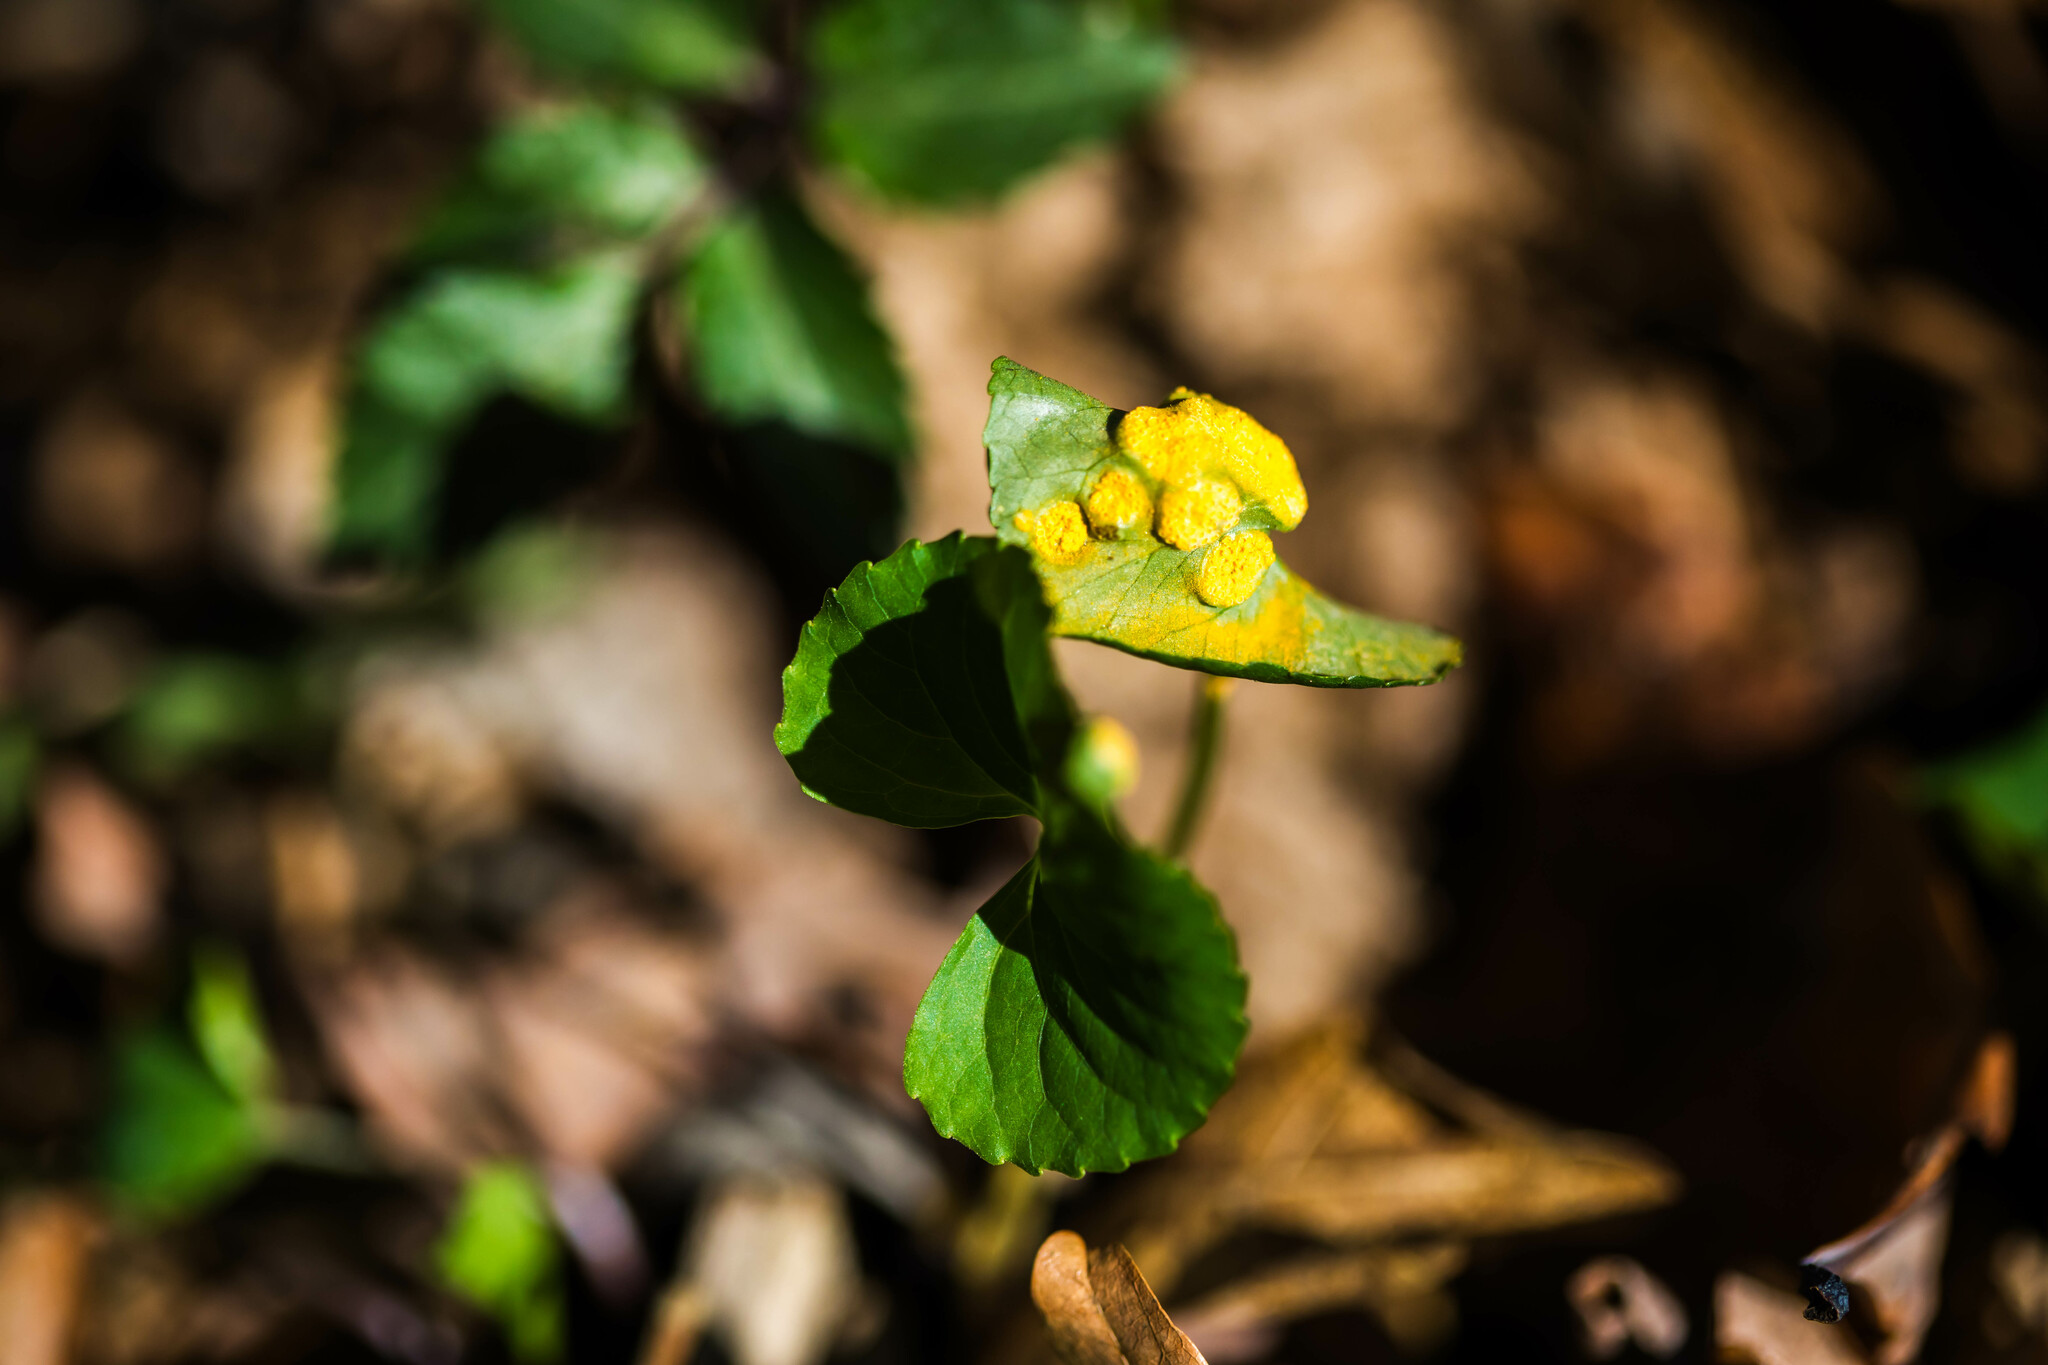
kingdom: Fungi
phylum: Basidiomycota
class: Pucciniomycetes
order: Pucciniales
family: Pucciniaceae
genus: Puccinia
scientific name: Puccinia violae
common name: Violet rust
